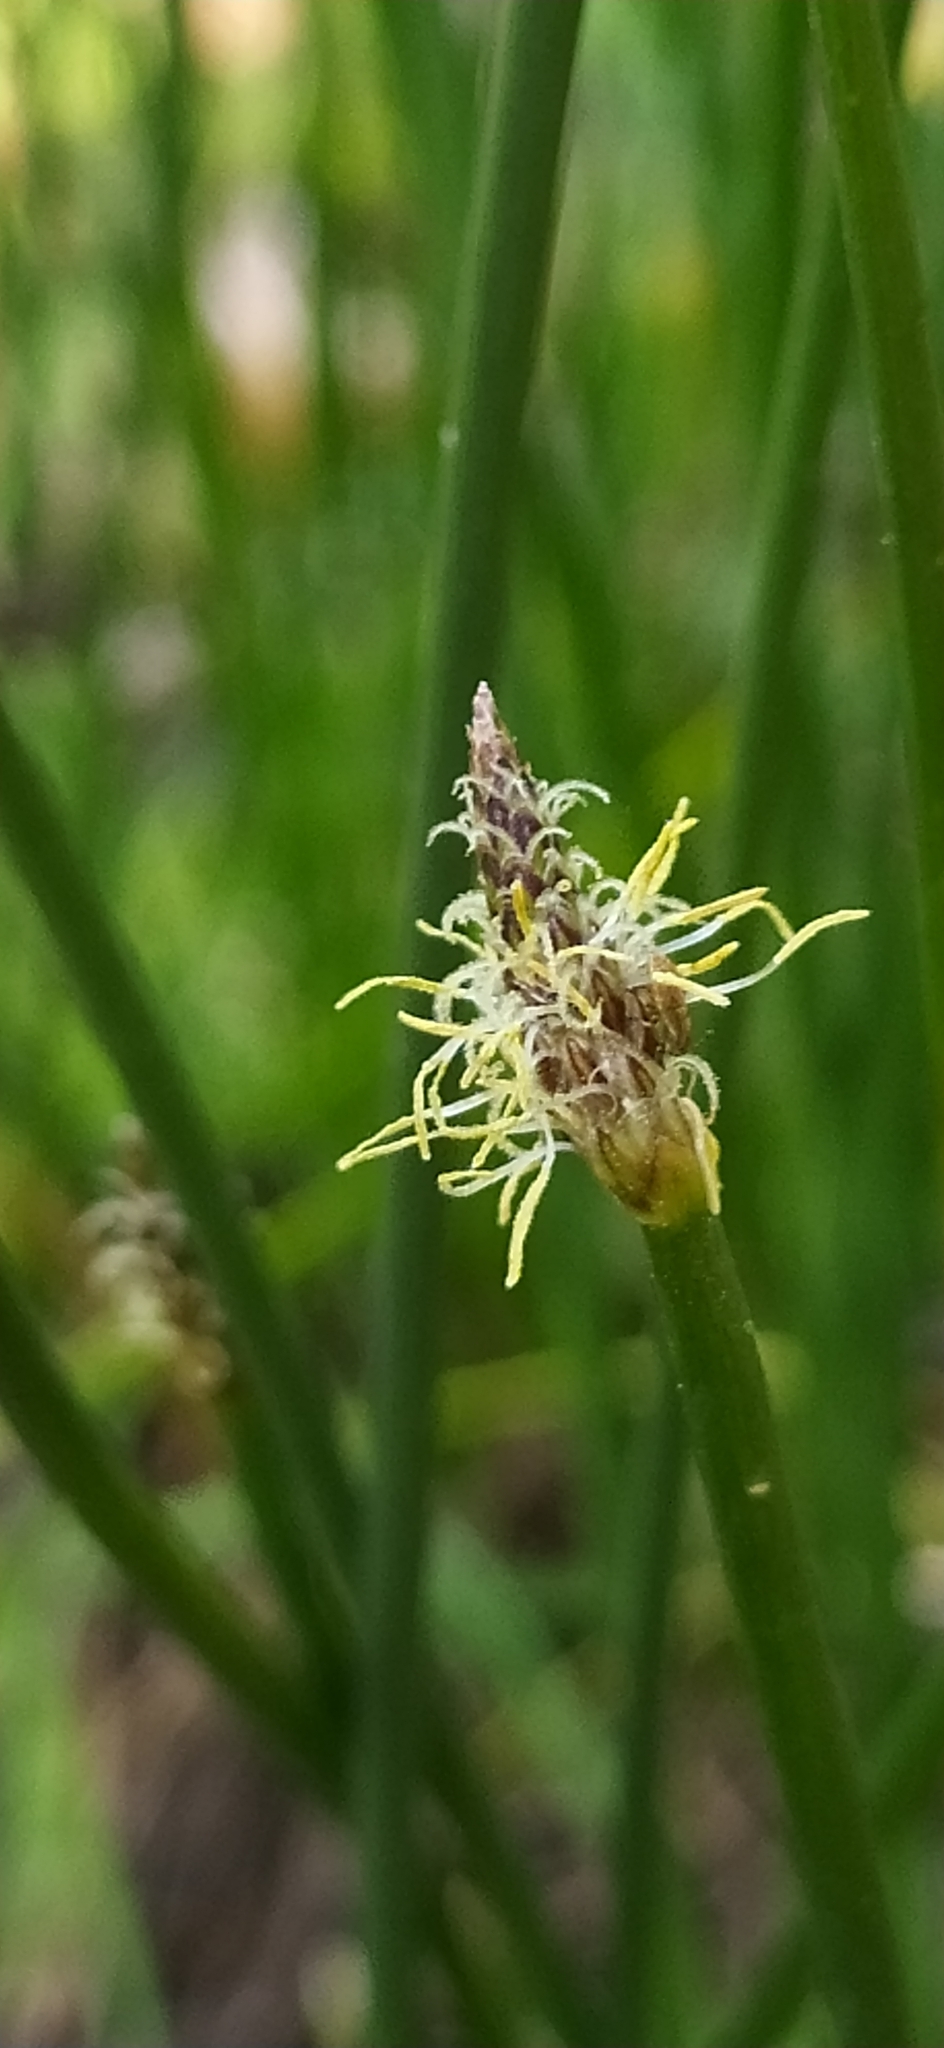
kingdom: Plantae
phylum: Tracheophyta
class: Liliopsida
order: Poales
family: Cyperaceae
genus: Eleocharis
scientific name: Eleocharis palustris
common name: Common spike-rush
